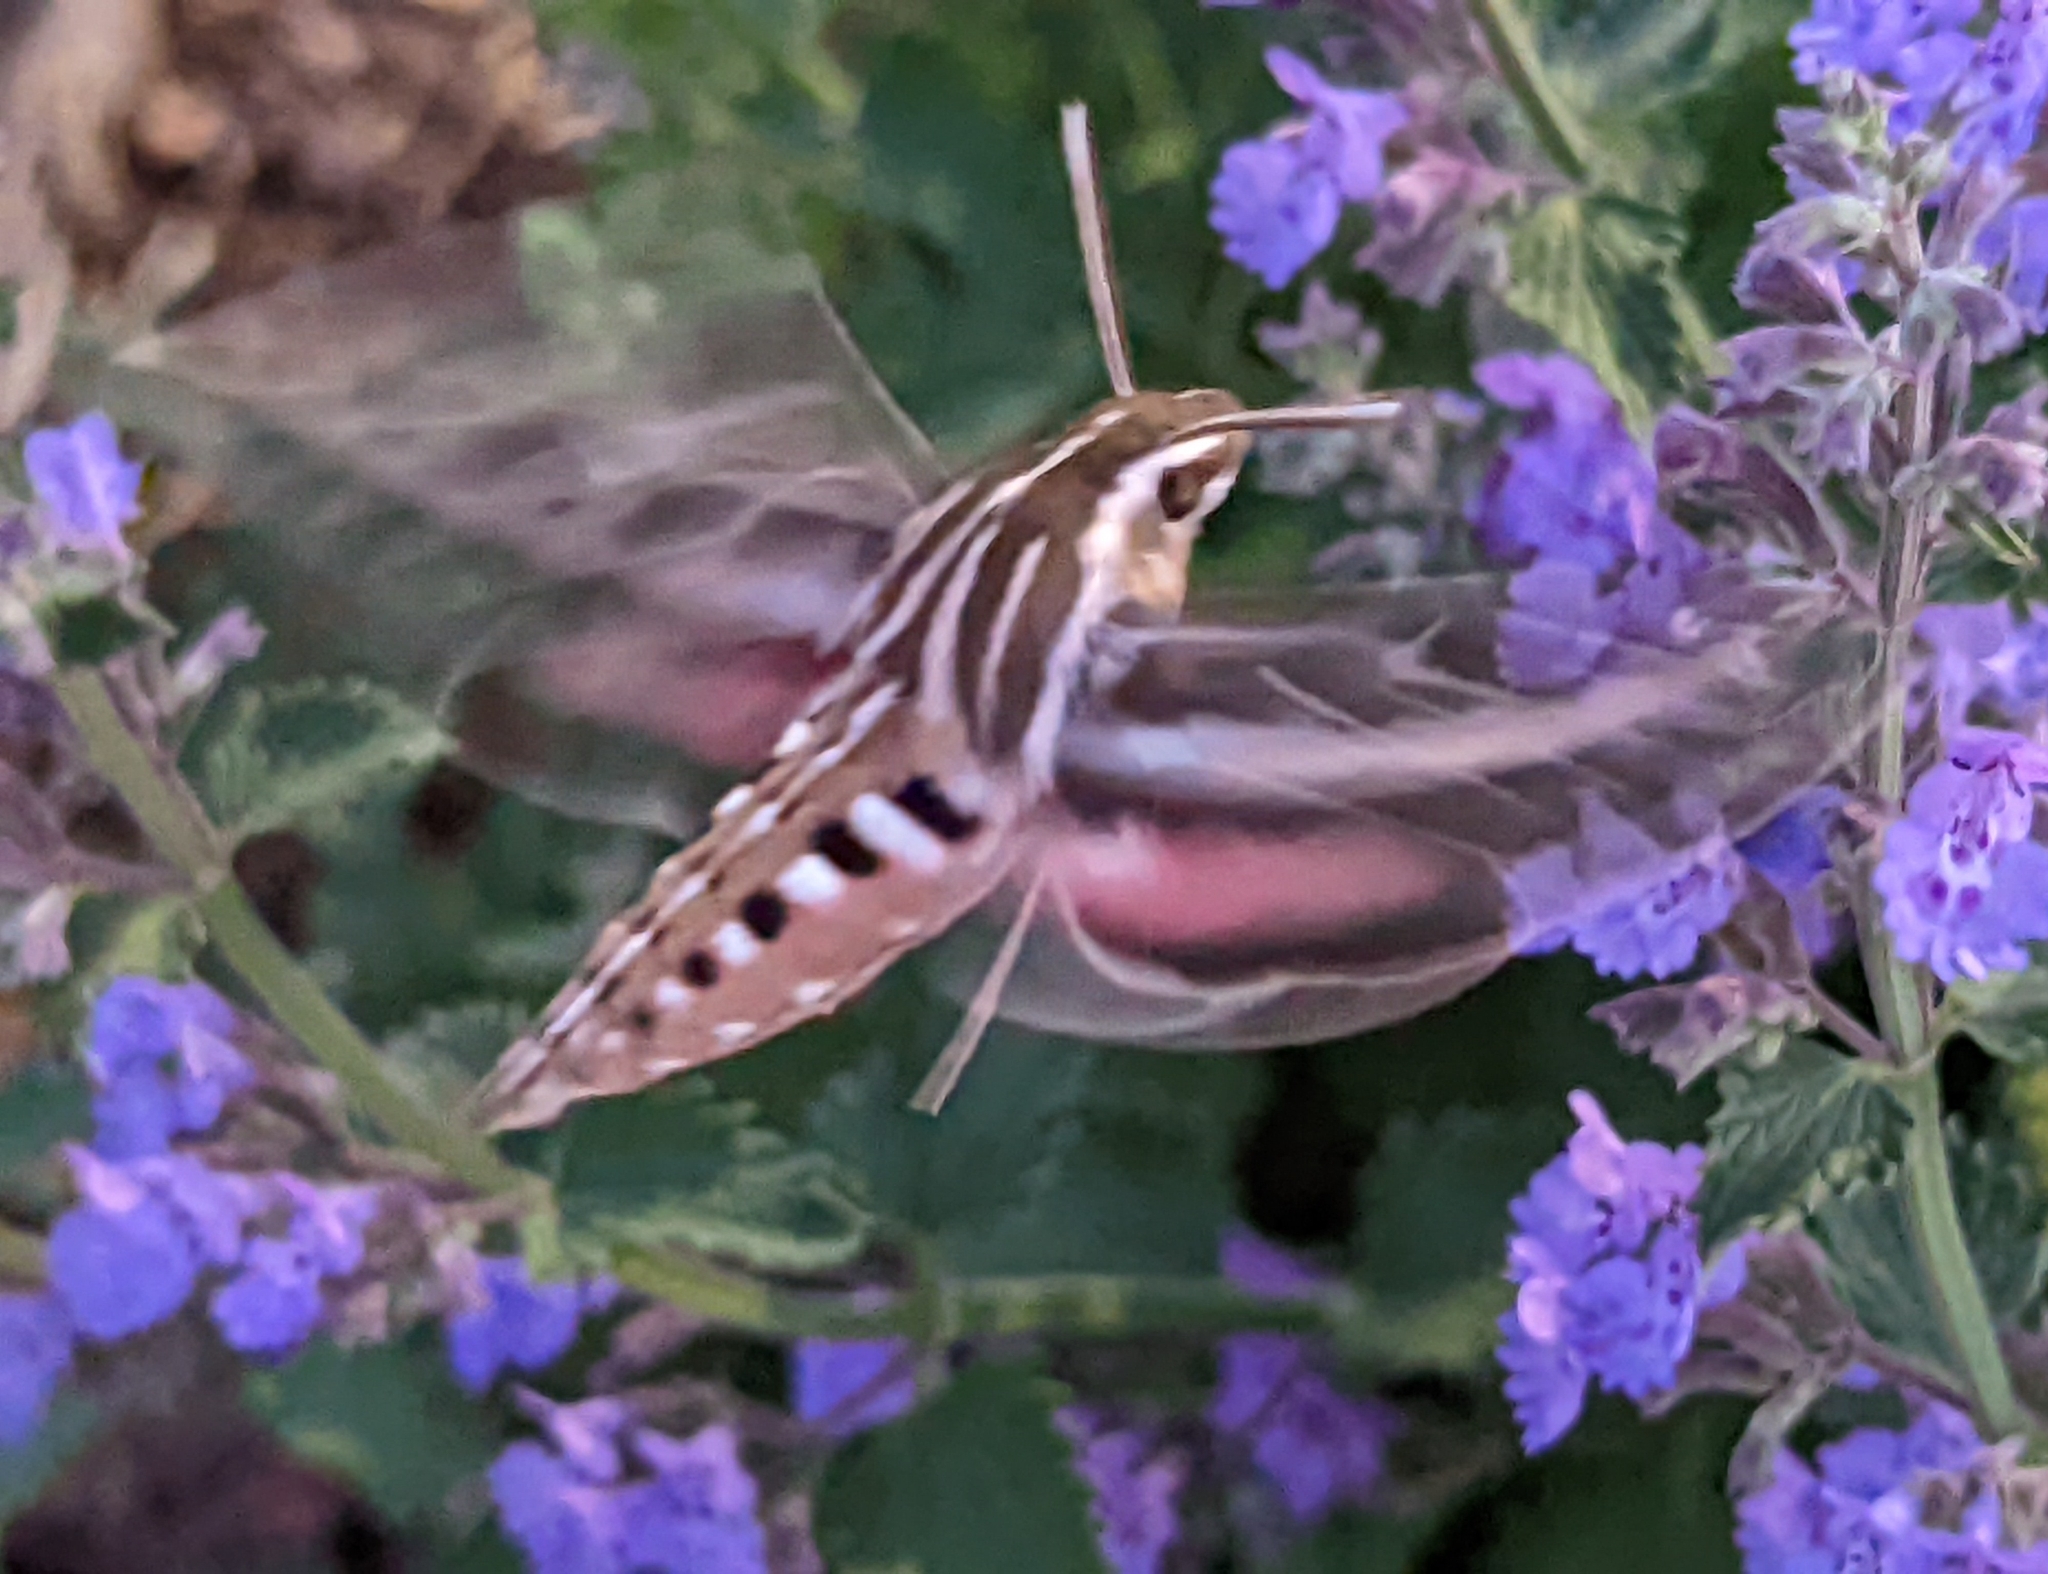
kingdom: Animalia
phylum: Arthropoda
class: Insecta
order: Lepidoptera
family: Sphingidae
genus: Hyles
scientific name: Hyles lineata
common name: White-lined sphinx
